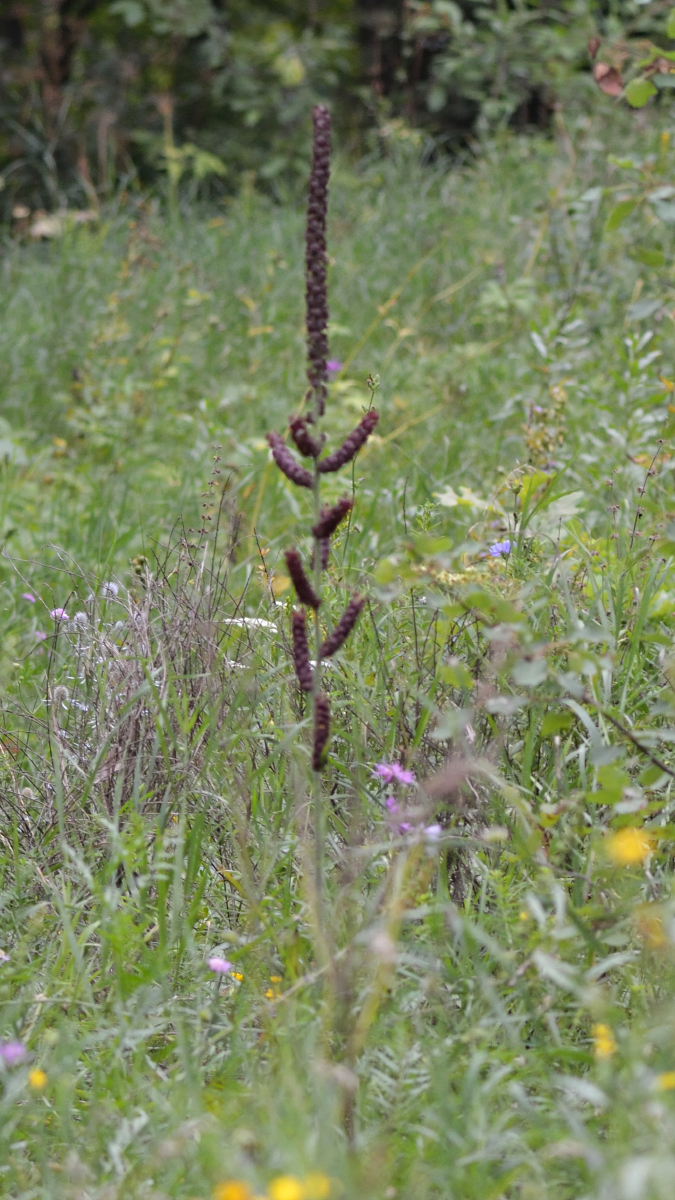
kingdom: Plantae
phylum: Tracheophyta
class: Liliopsida
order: Liliales
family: Melanthiaceae
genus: Veratrum
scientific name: Veratrum nigrum
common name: Black veratrum
